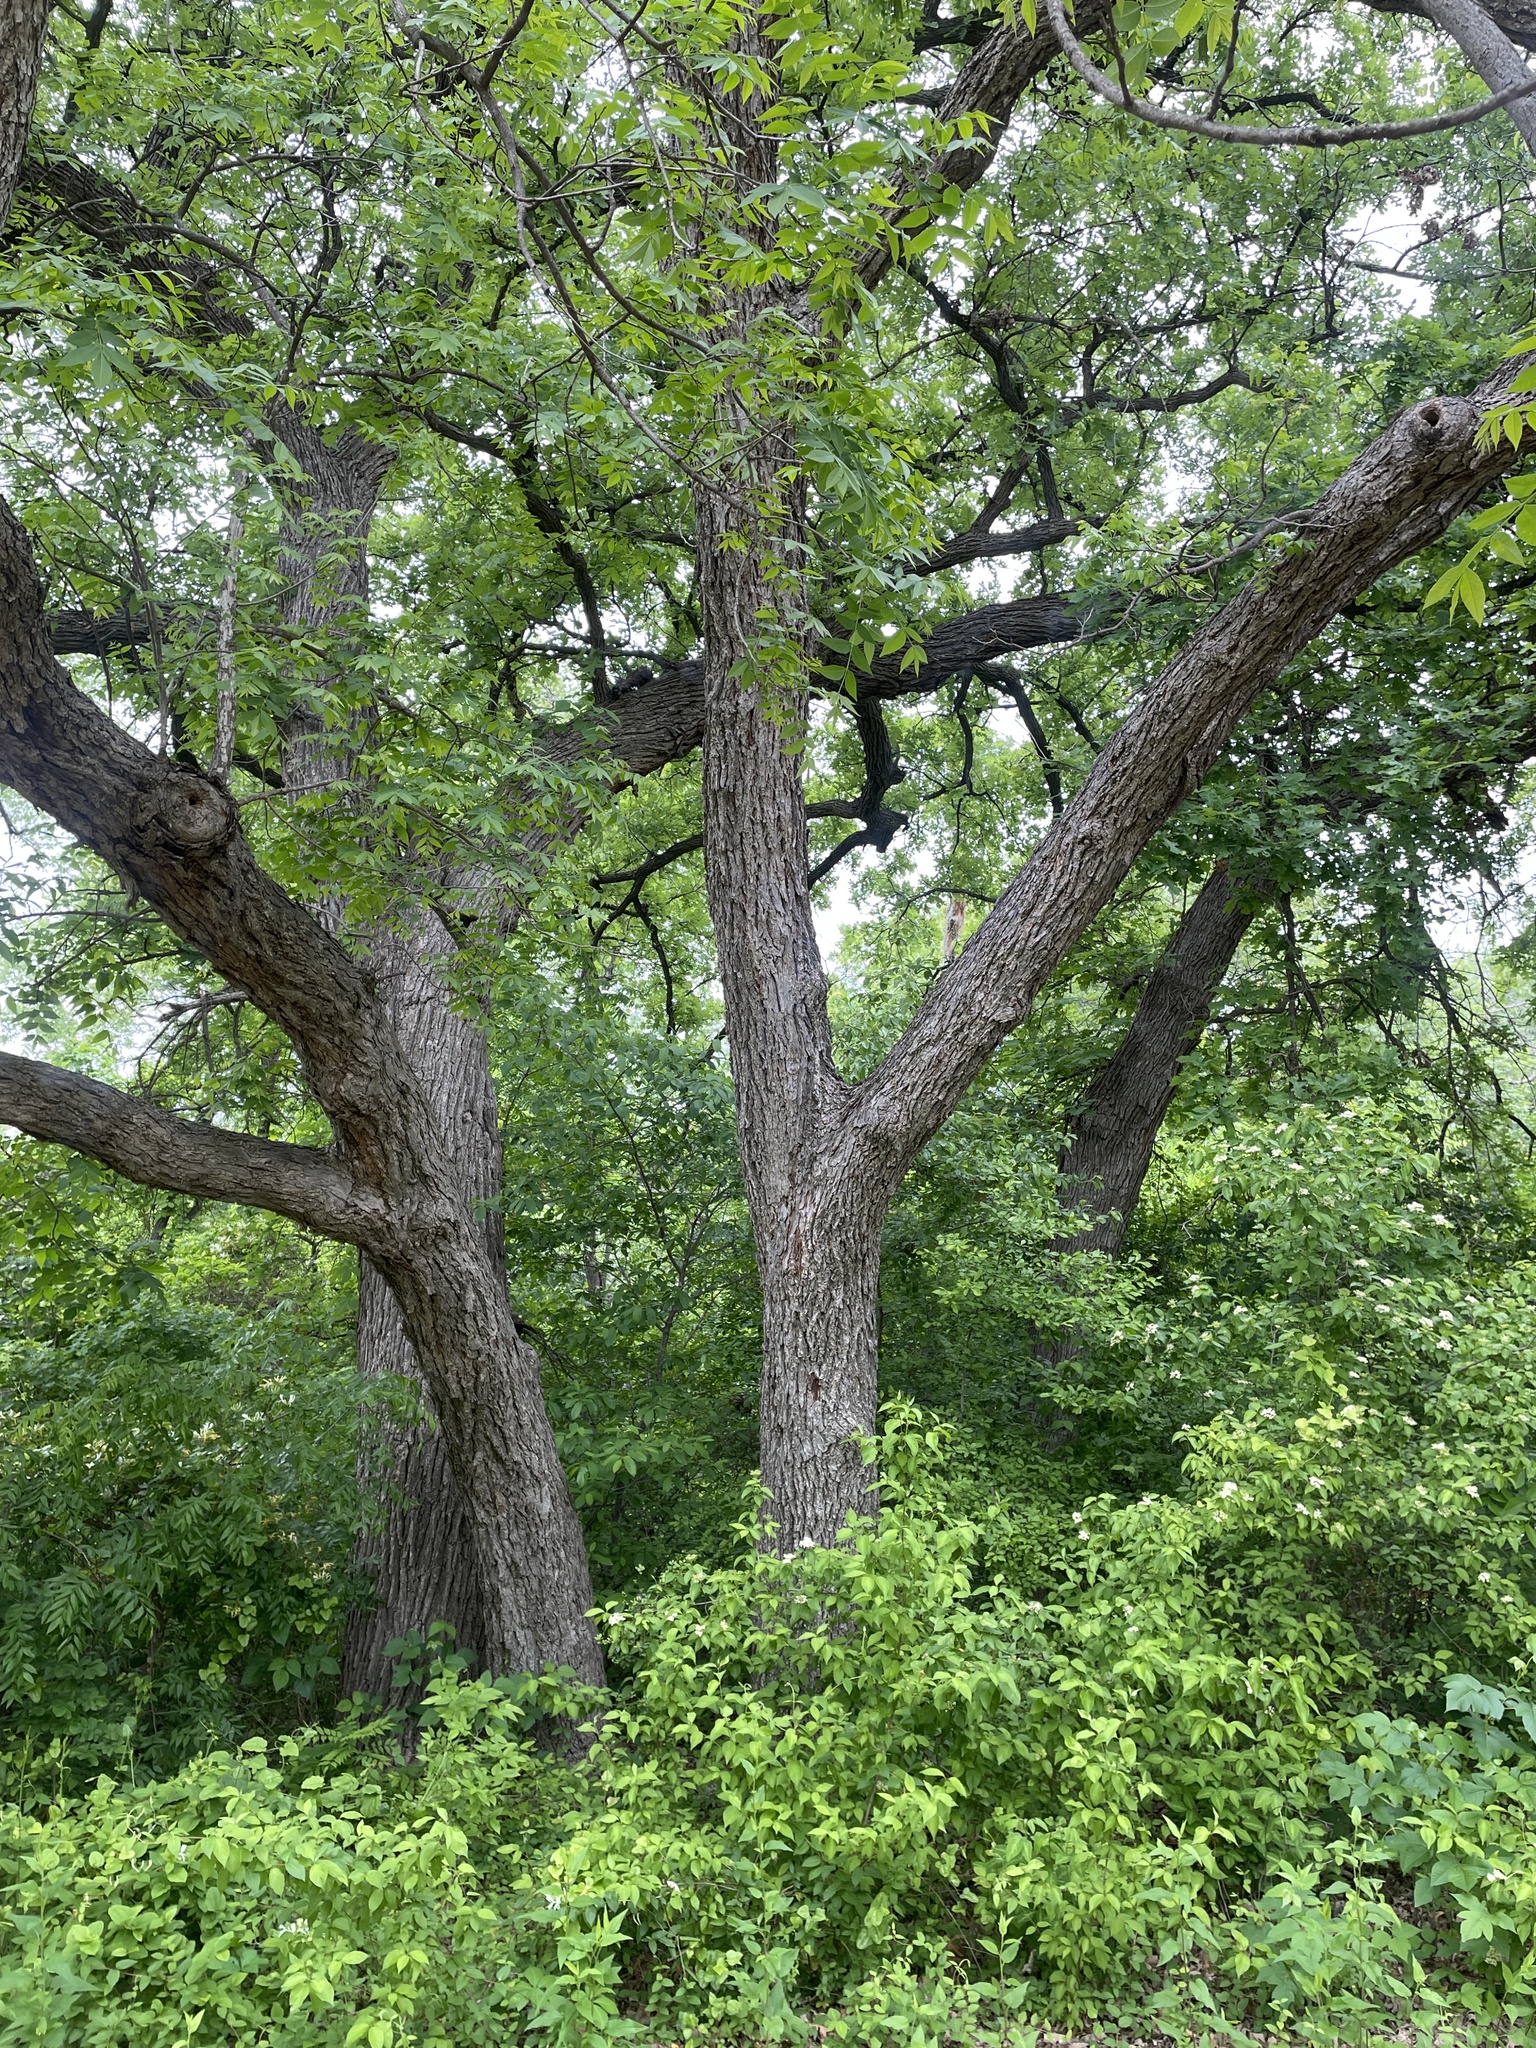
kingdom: Plantae
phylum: Tracheophyta
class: Magnoliopsida
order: Fagales
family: Juglandaceae
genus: Carya
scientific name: Carya illinoinensis
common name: Pecan
